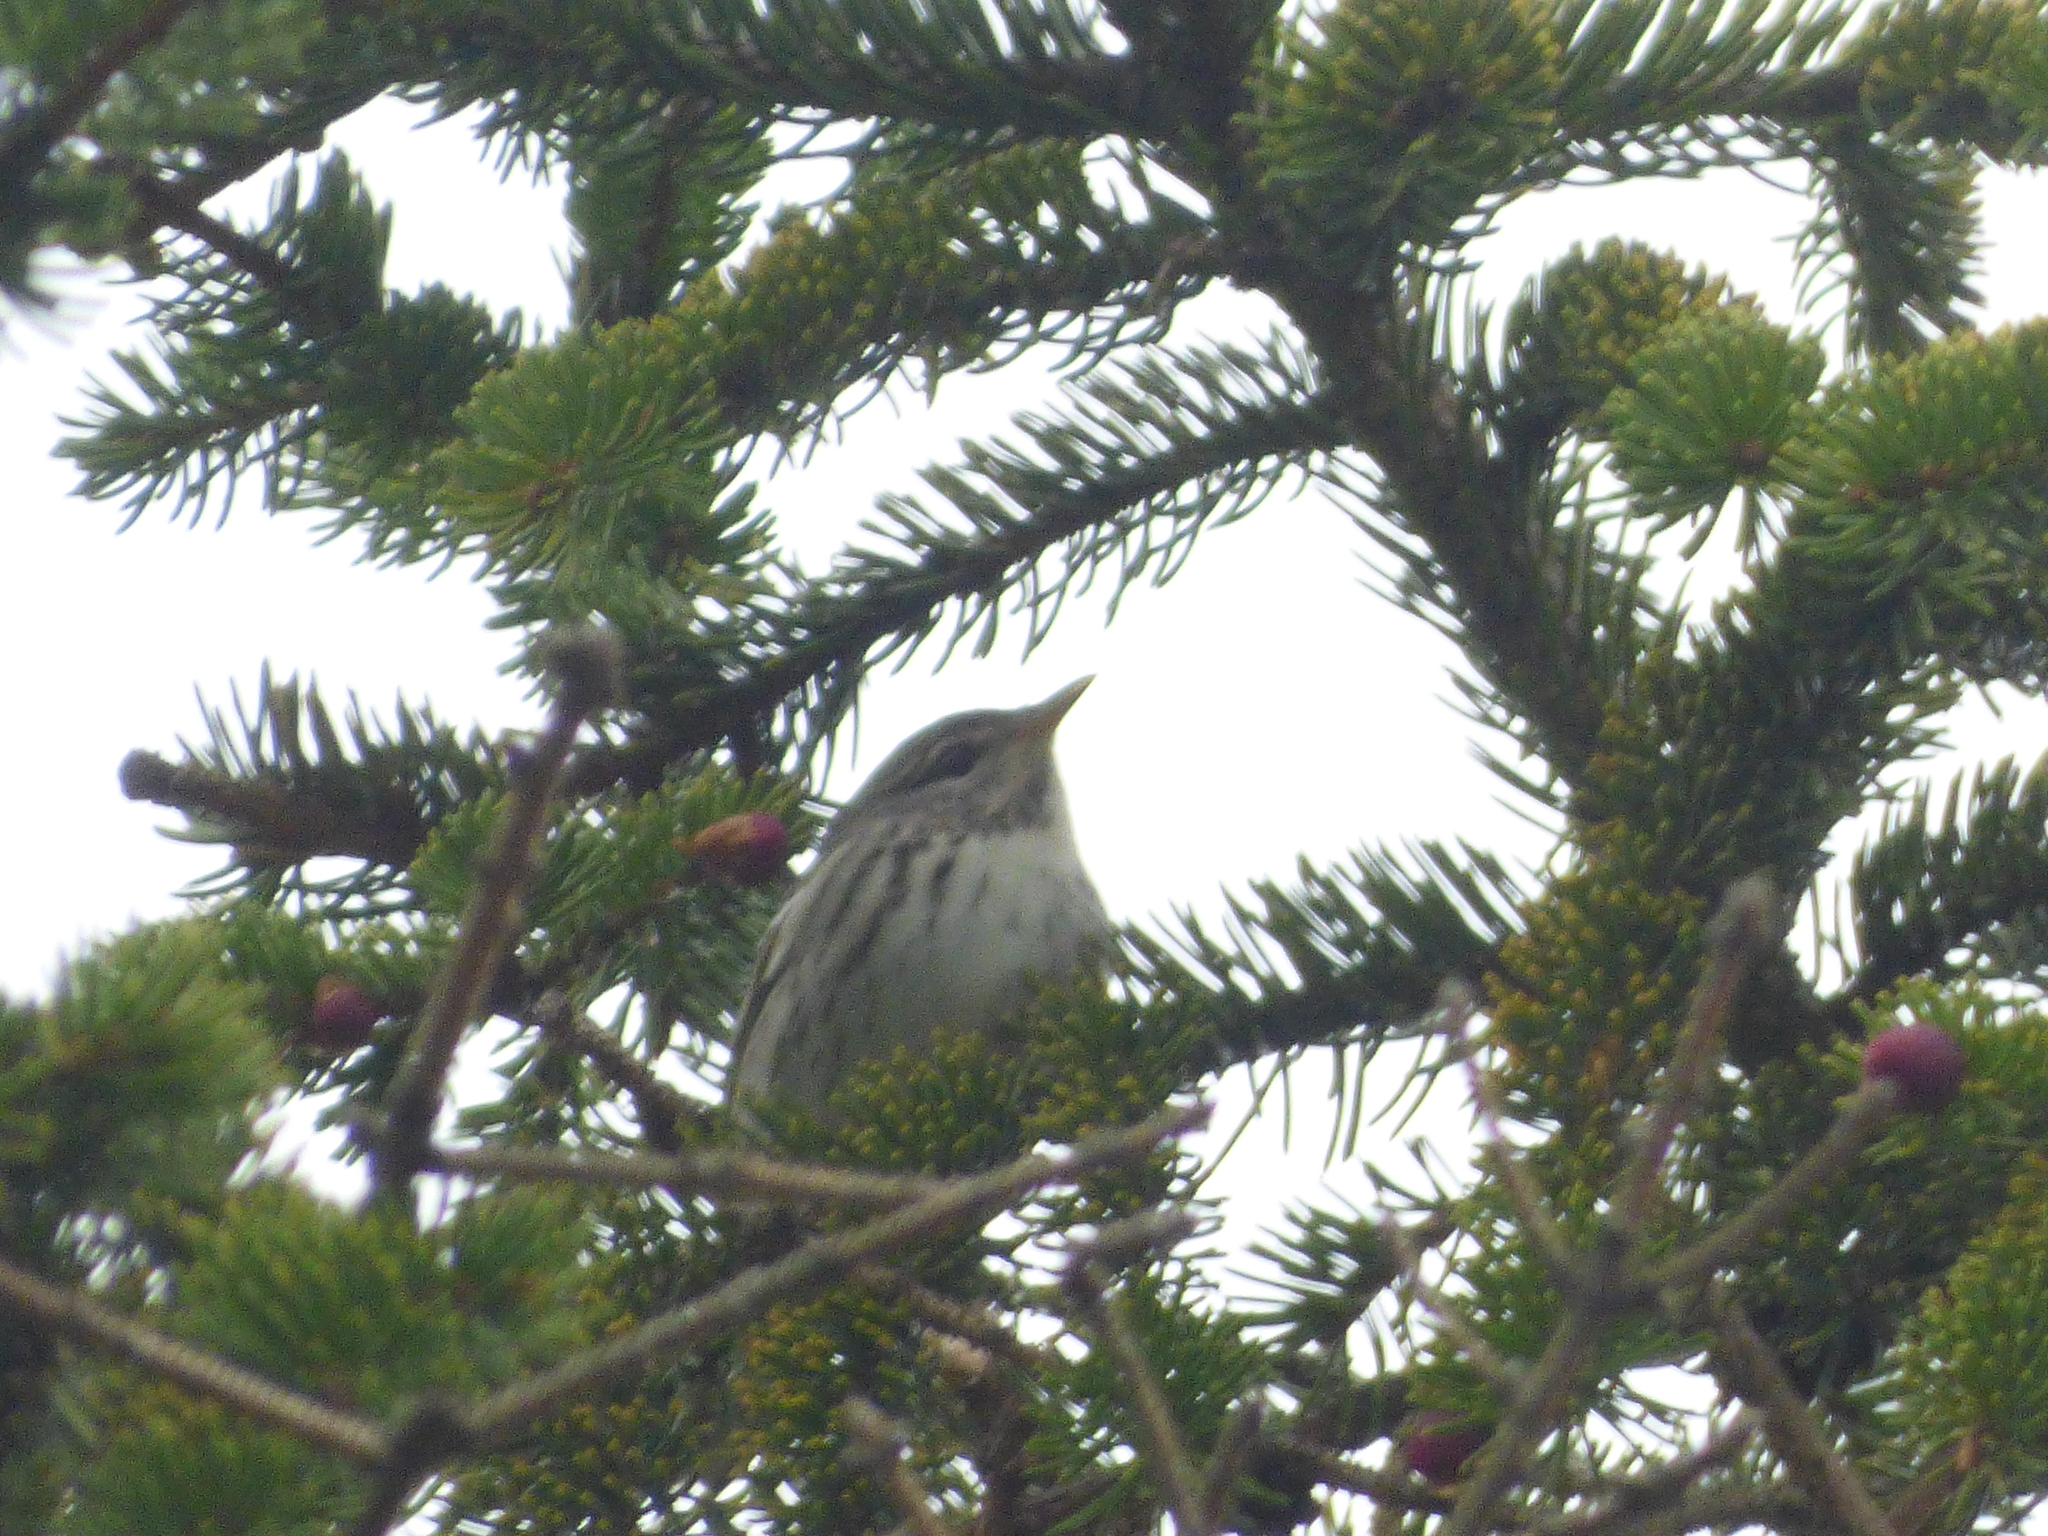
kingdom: Animalia
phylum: Chordata
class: Aves
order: Passeriformes
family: Parulidae
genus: Setophaga
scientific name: Setophaga striata
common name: Blackpoll warbler
